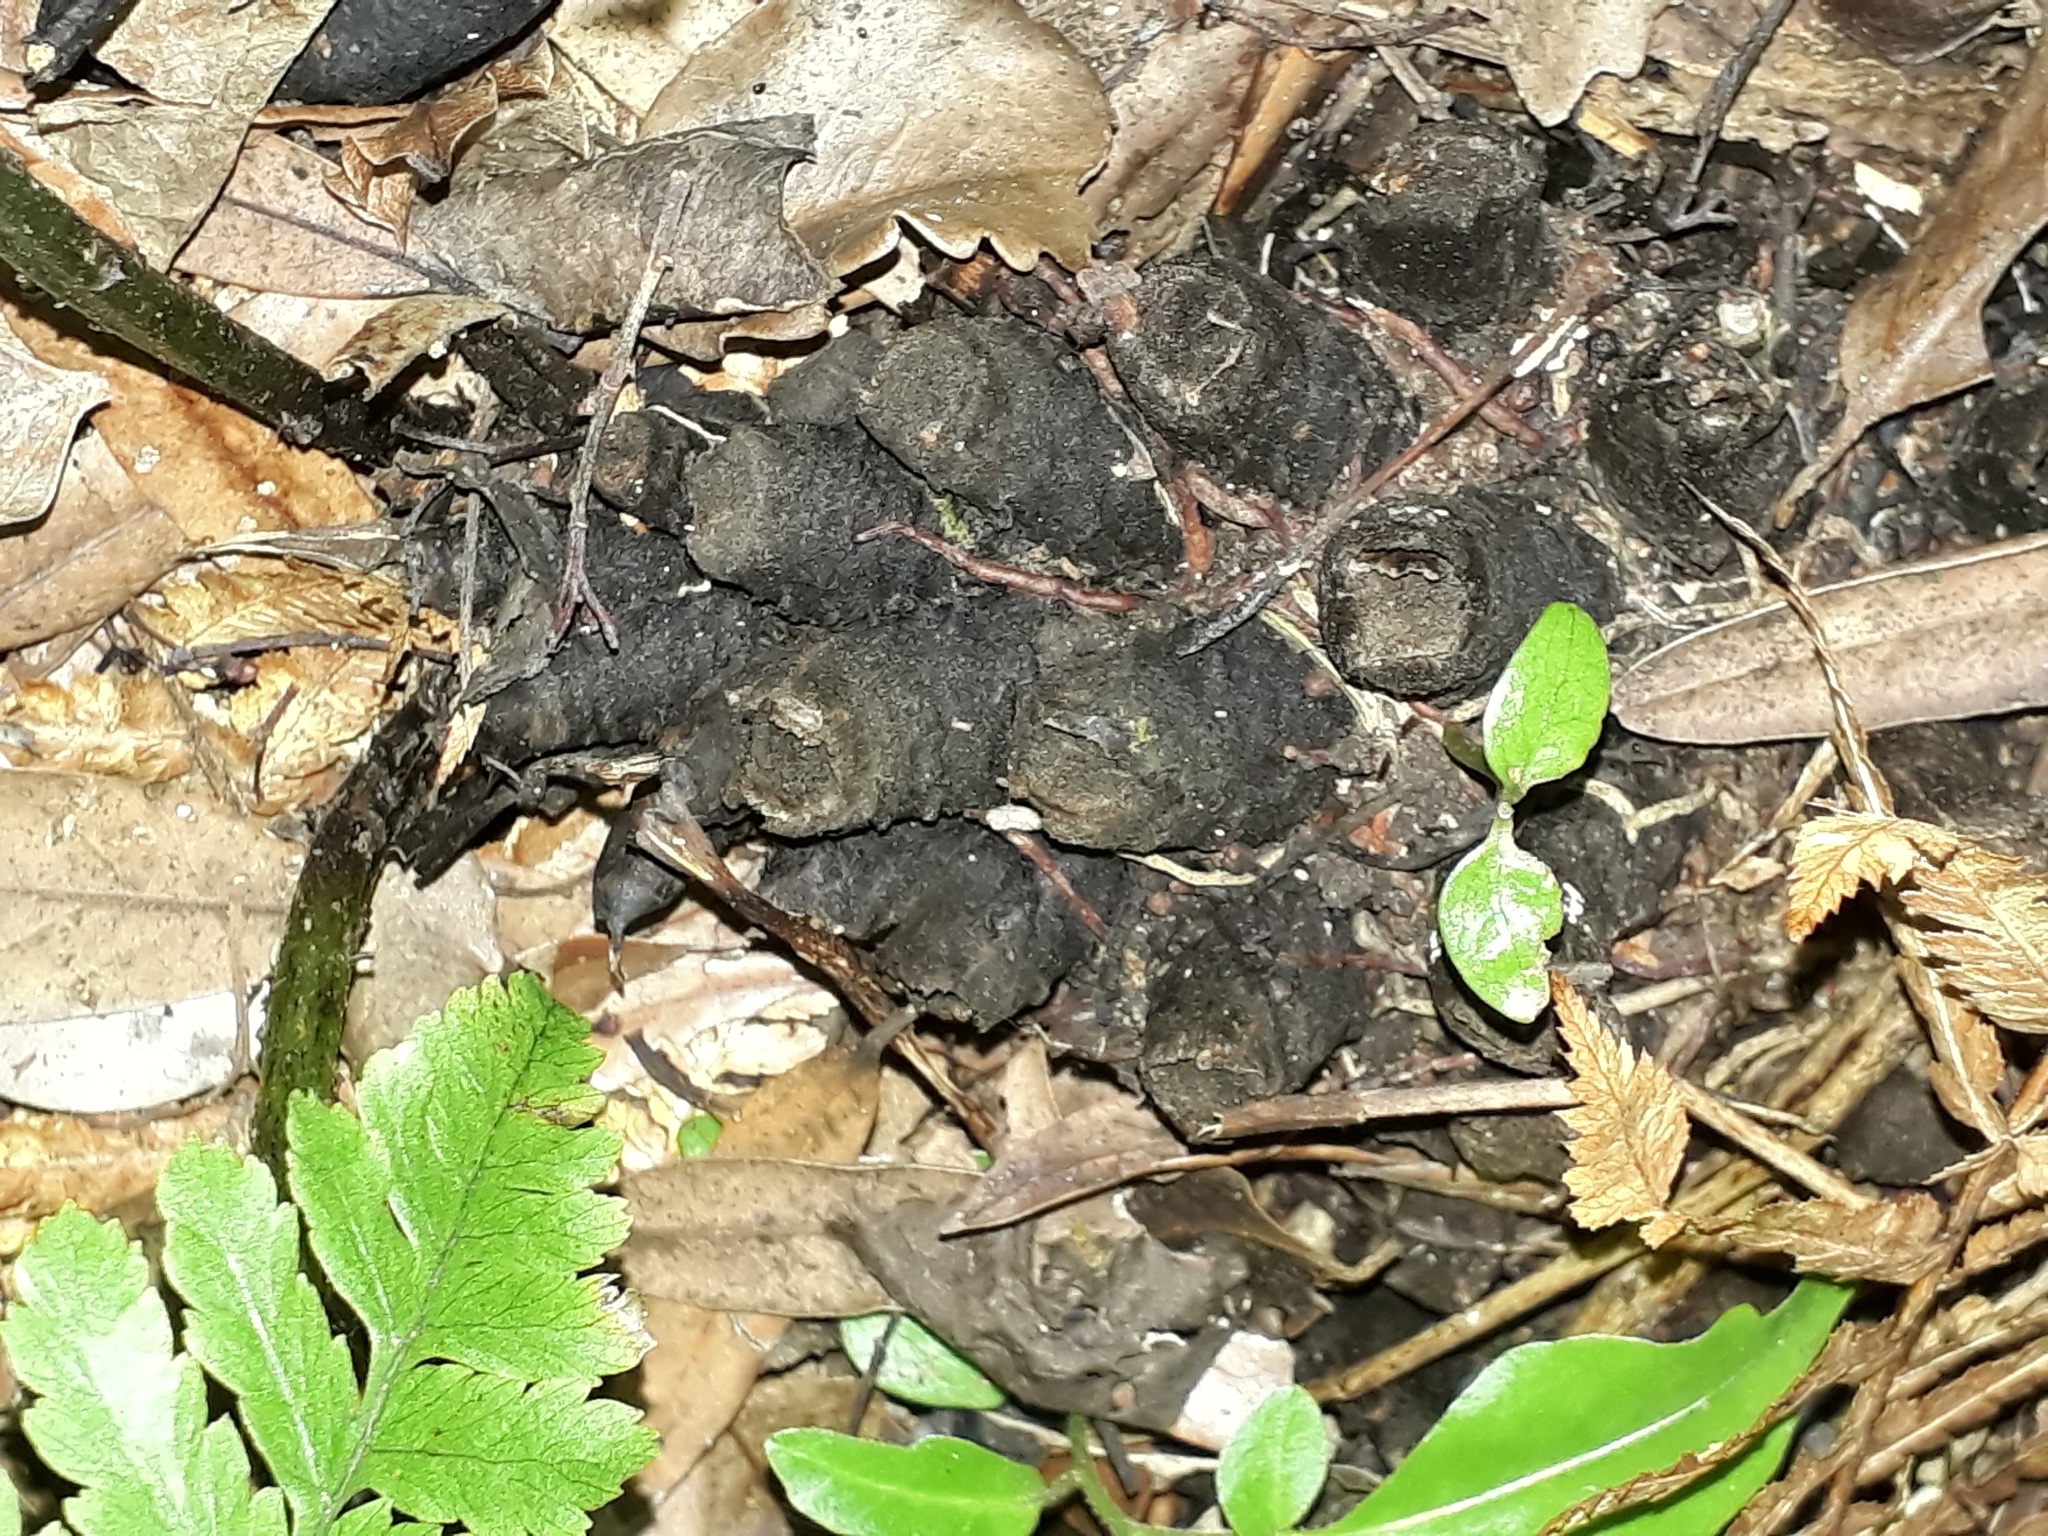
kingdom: Plantae
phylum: Tracheophyta
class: Polypodiopsida
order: Polypodiales
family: Athyriaceae
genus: Diplazium
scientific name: Diplazium australe
